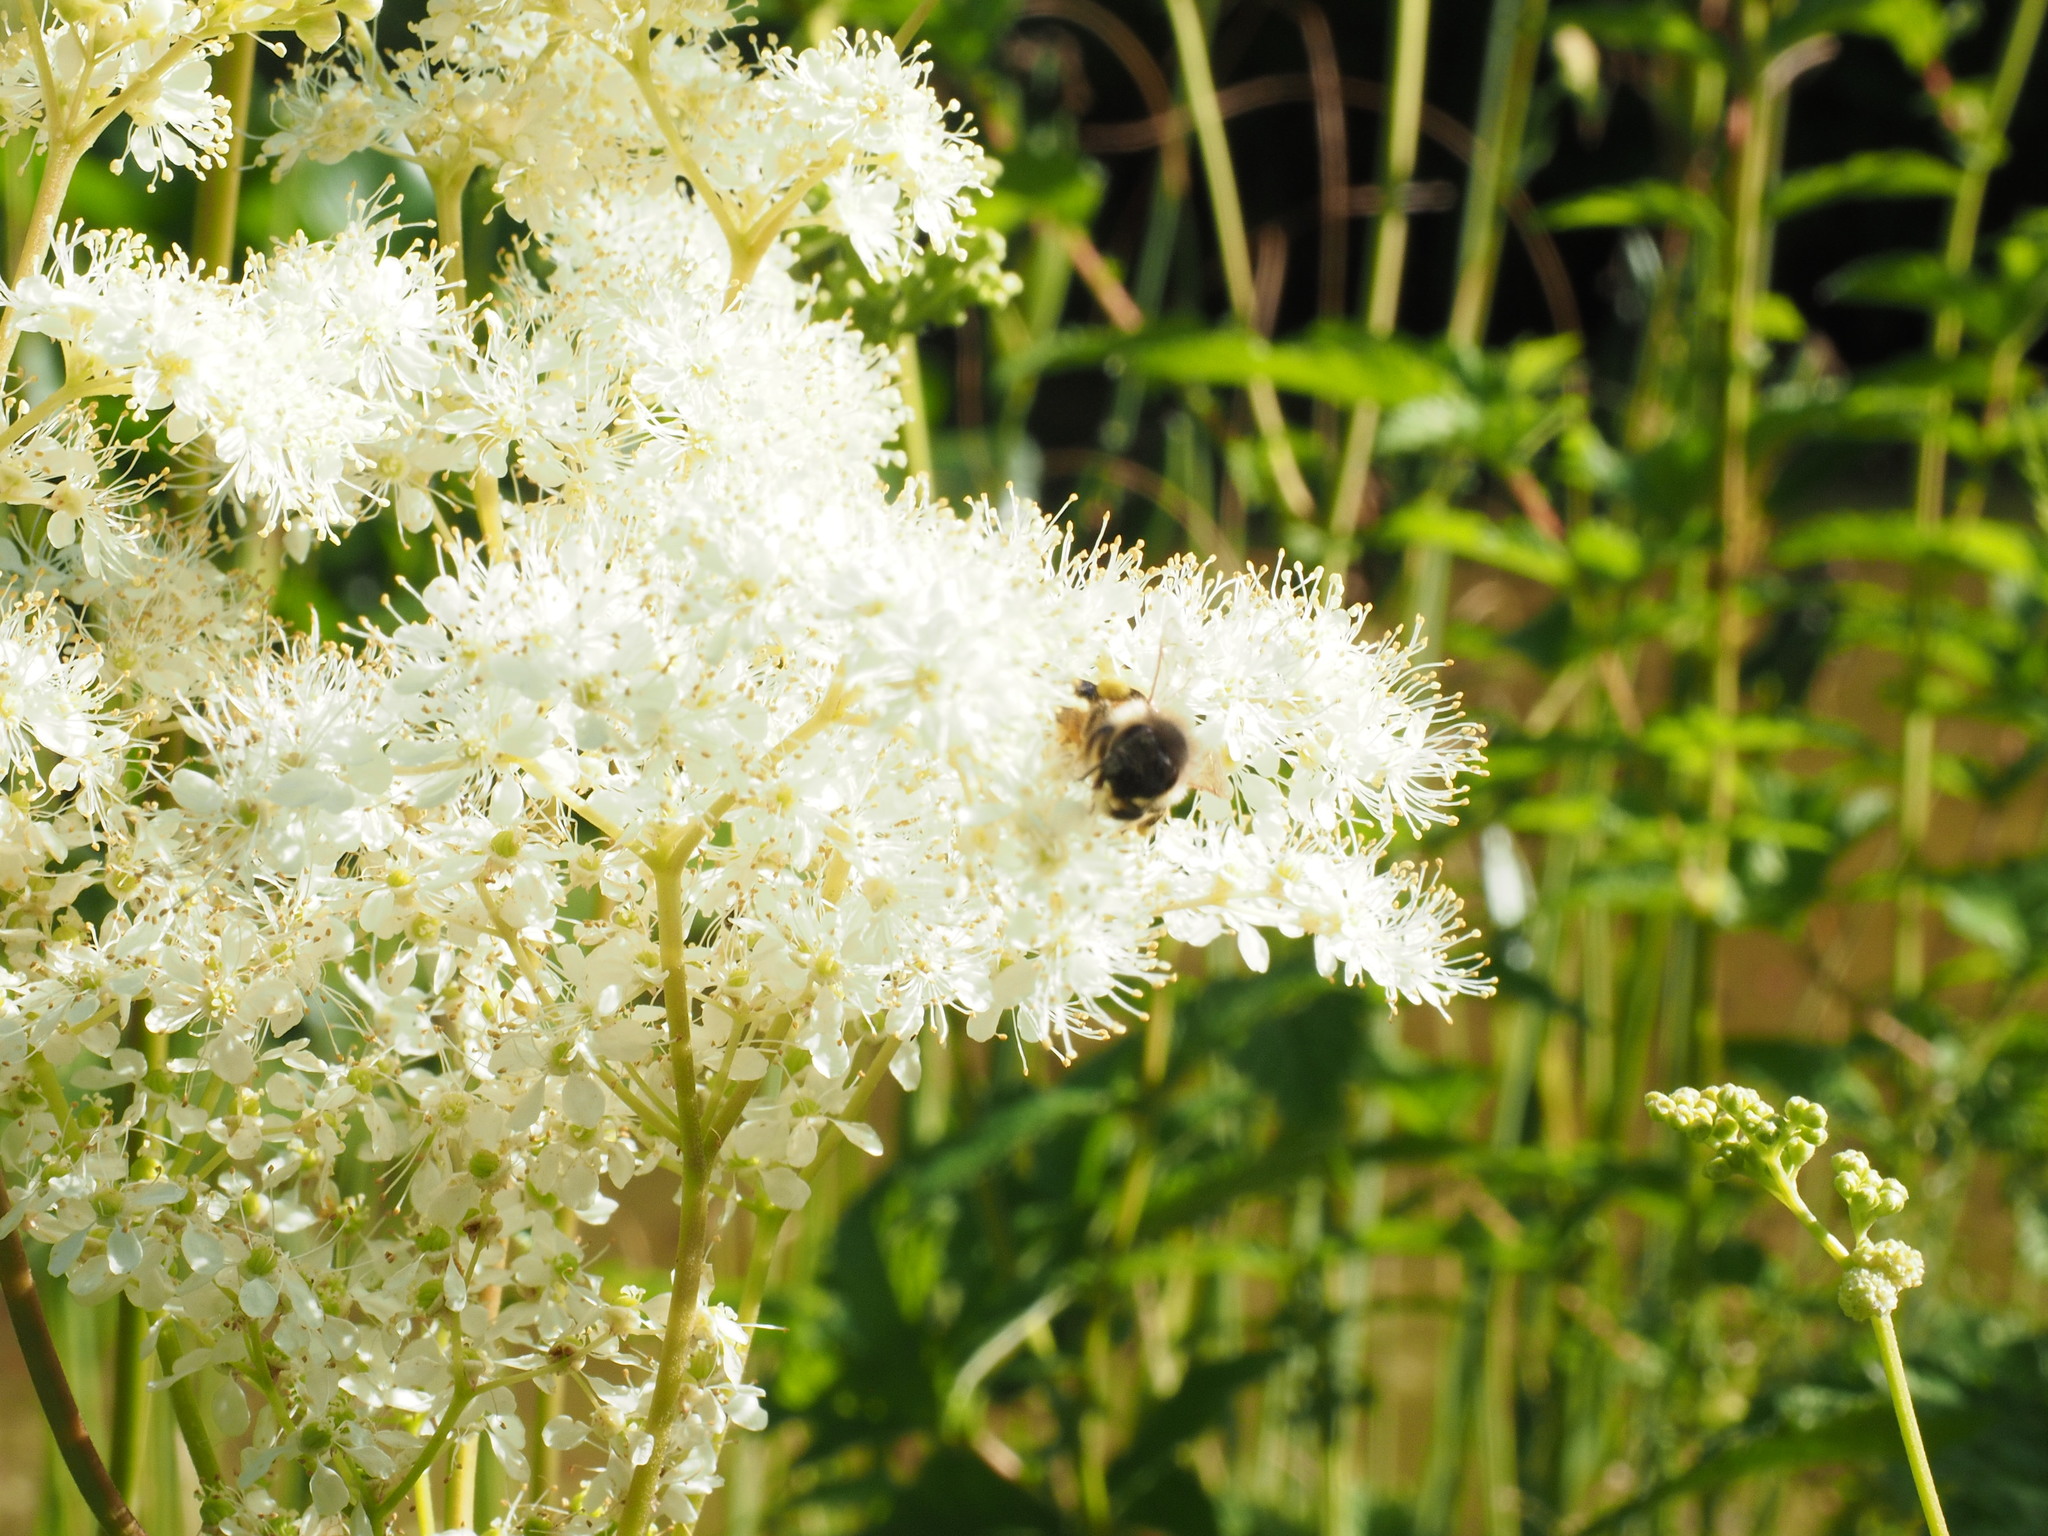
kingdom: Plantae
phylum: Tracheophyta
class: Magnoliopsida
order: Rosales
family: Rosaceae
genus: Filipendula
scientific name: Filipendula ulmaria
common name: Meadowsweet
